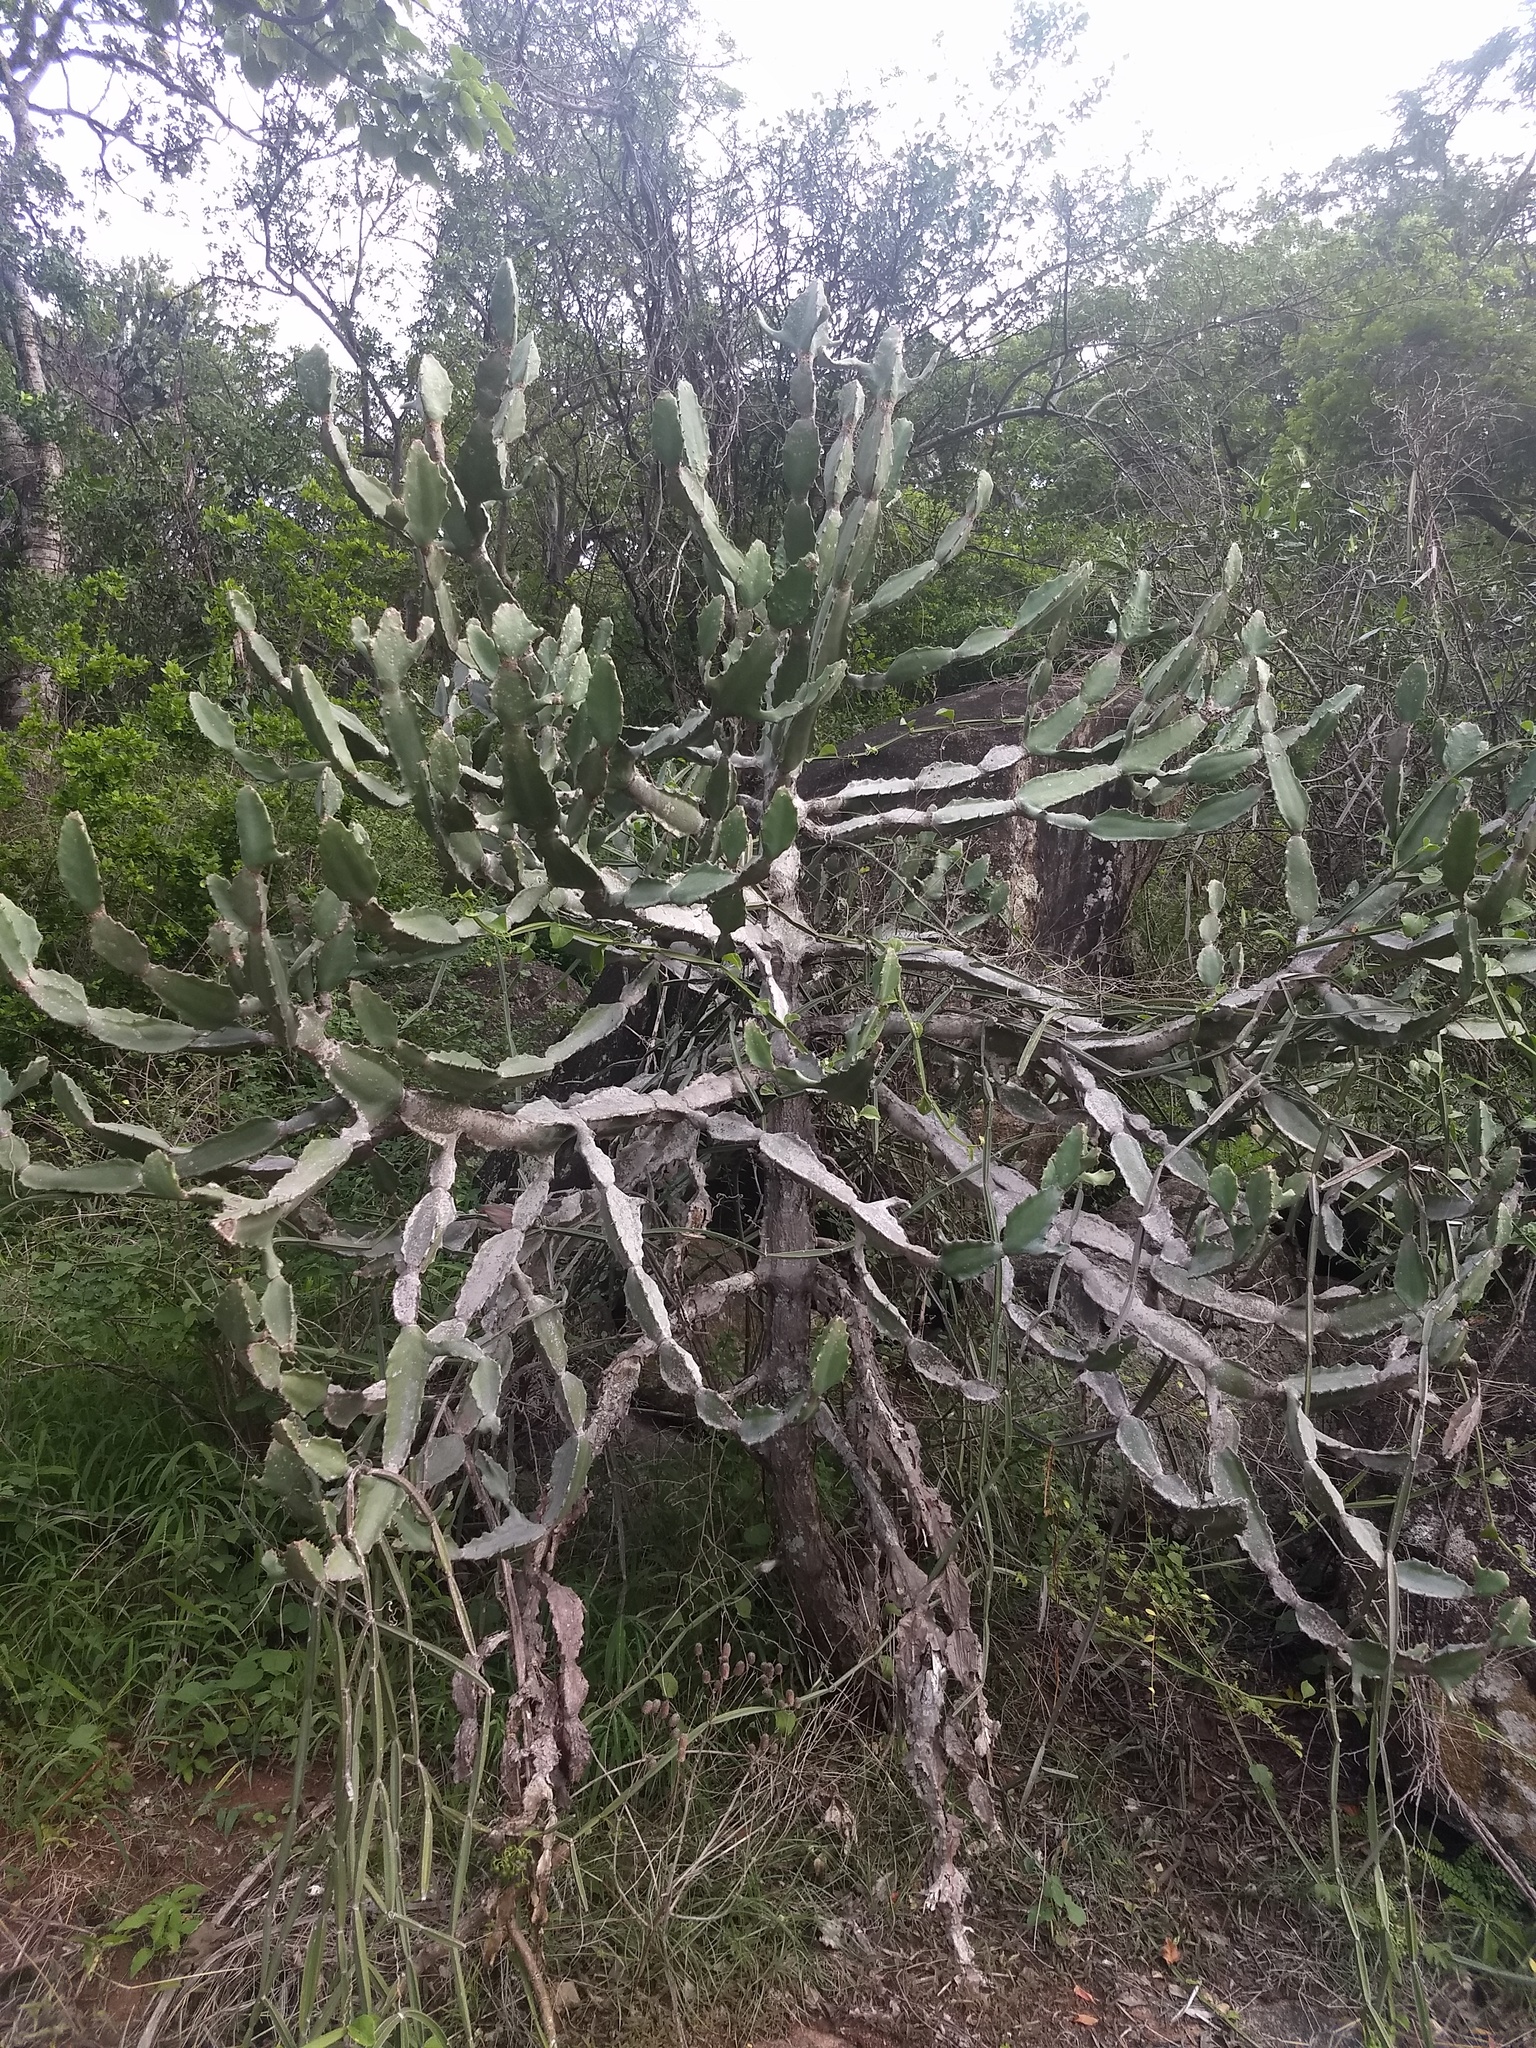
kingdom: Plantae
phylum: Tracheophyta
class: Magnoliopsida
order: Malpighiales
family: Euphorbiaceae
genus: Euphorbia
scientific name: Euphorbia antiquorum
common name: Malayan spurge tree
